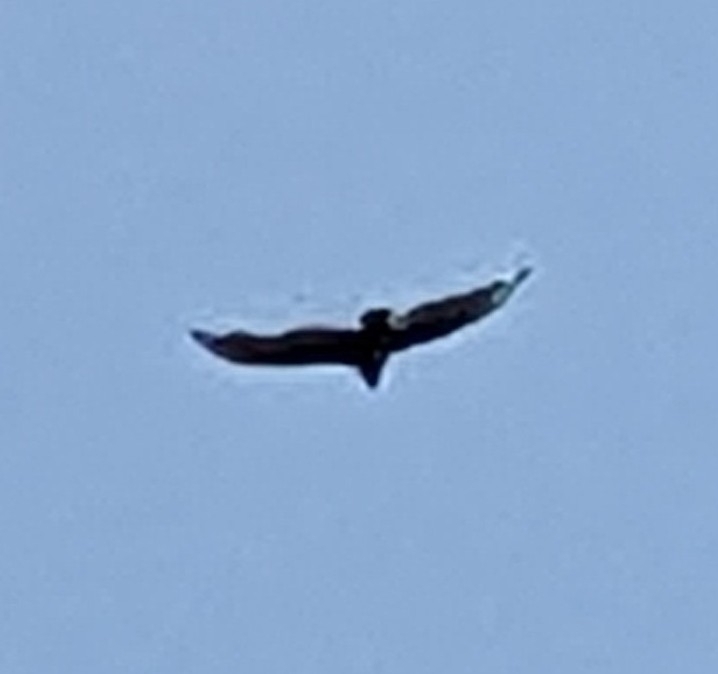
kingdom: Animalia
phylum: Chordata
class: Aves
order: Accipitriformes
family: Cathartidae
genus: Cathartes
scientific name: Cathartes aura
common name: Turkey vulture
